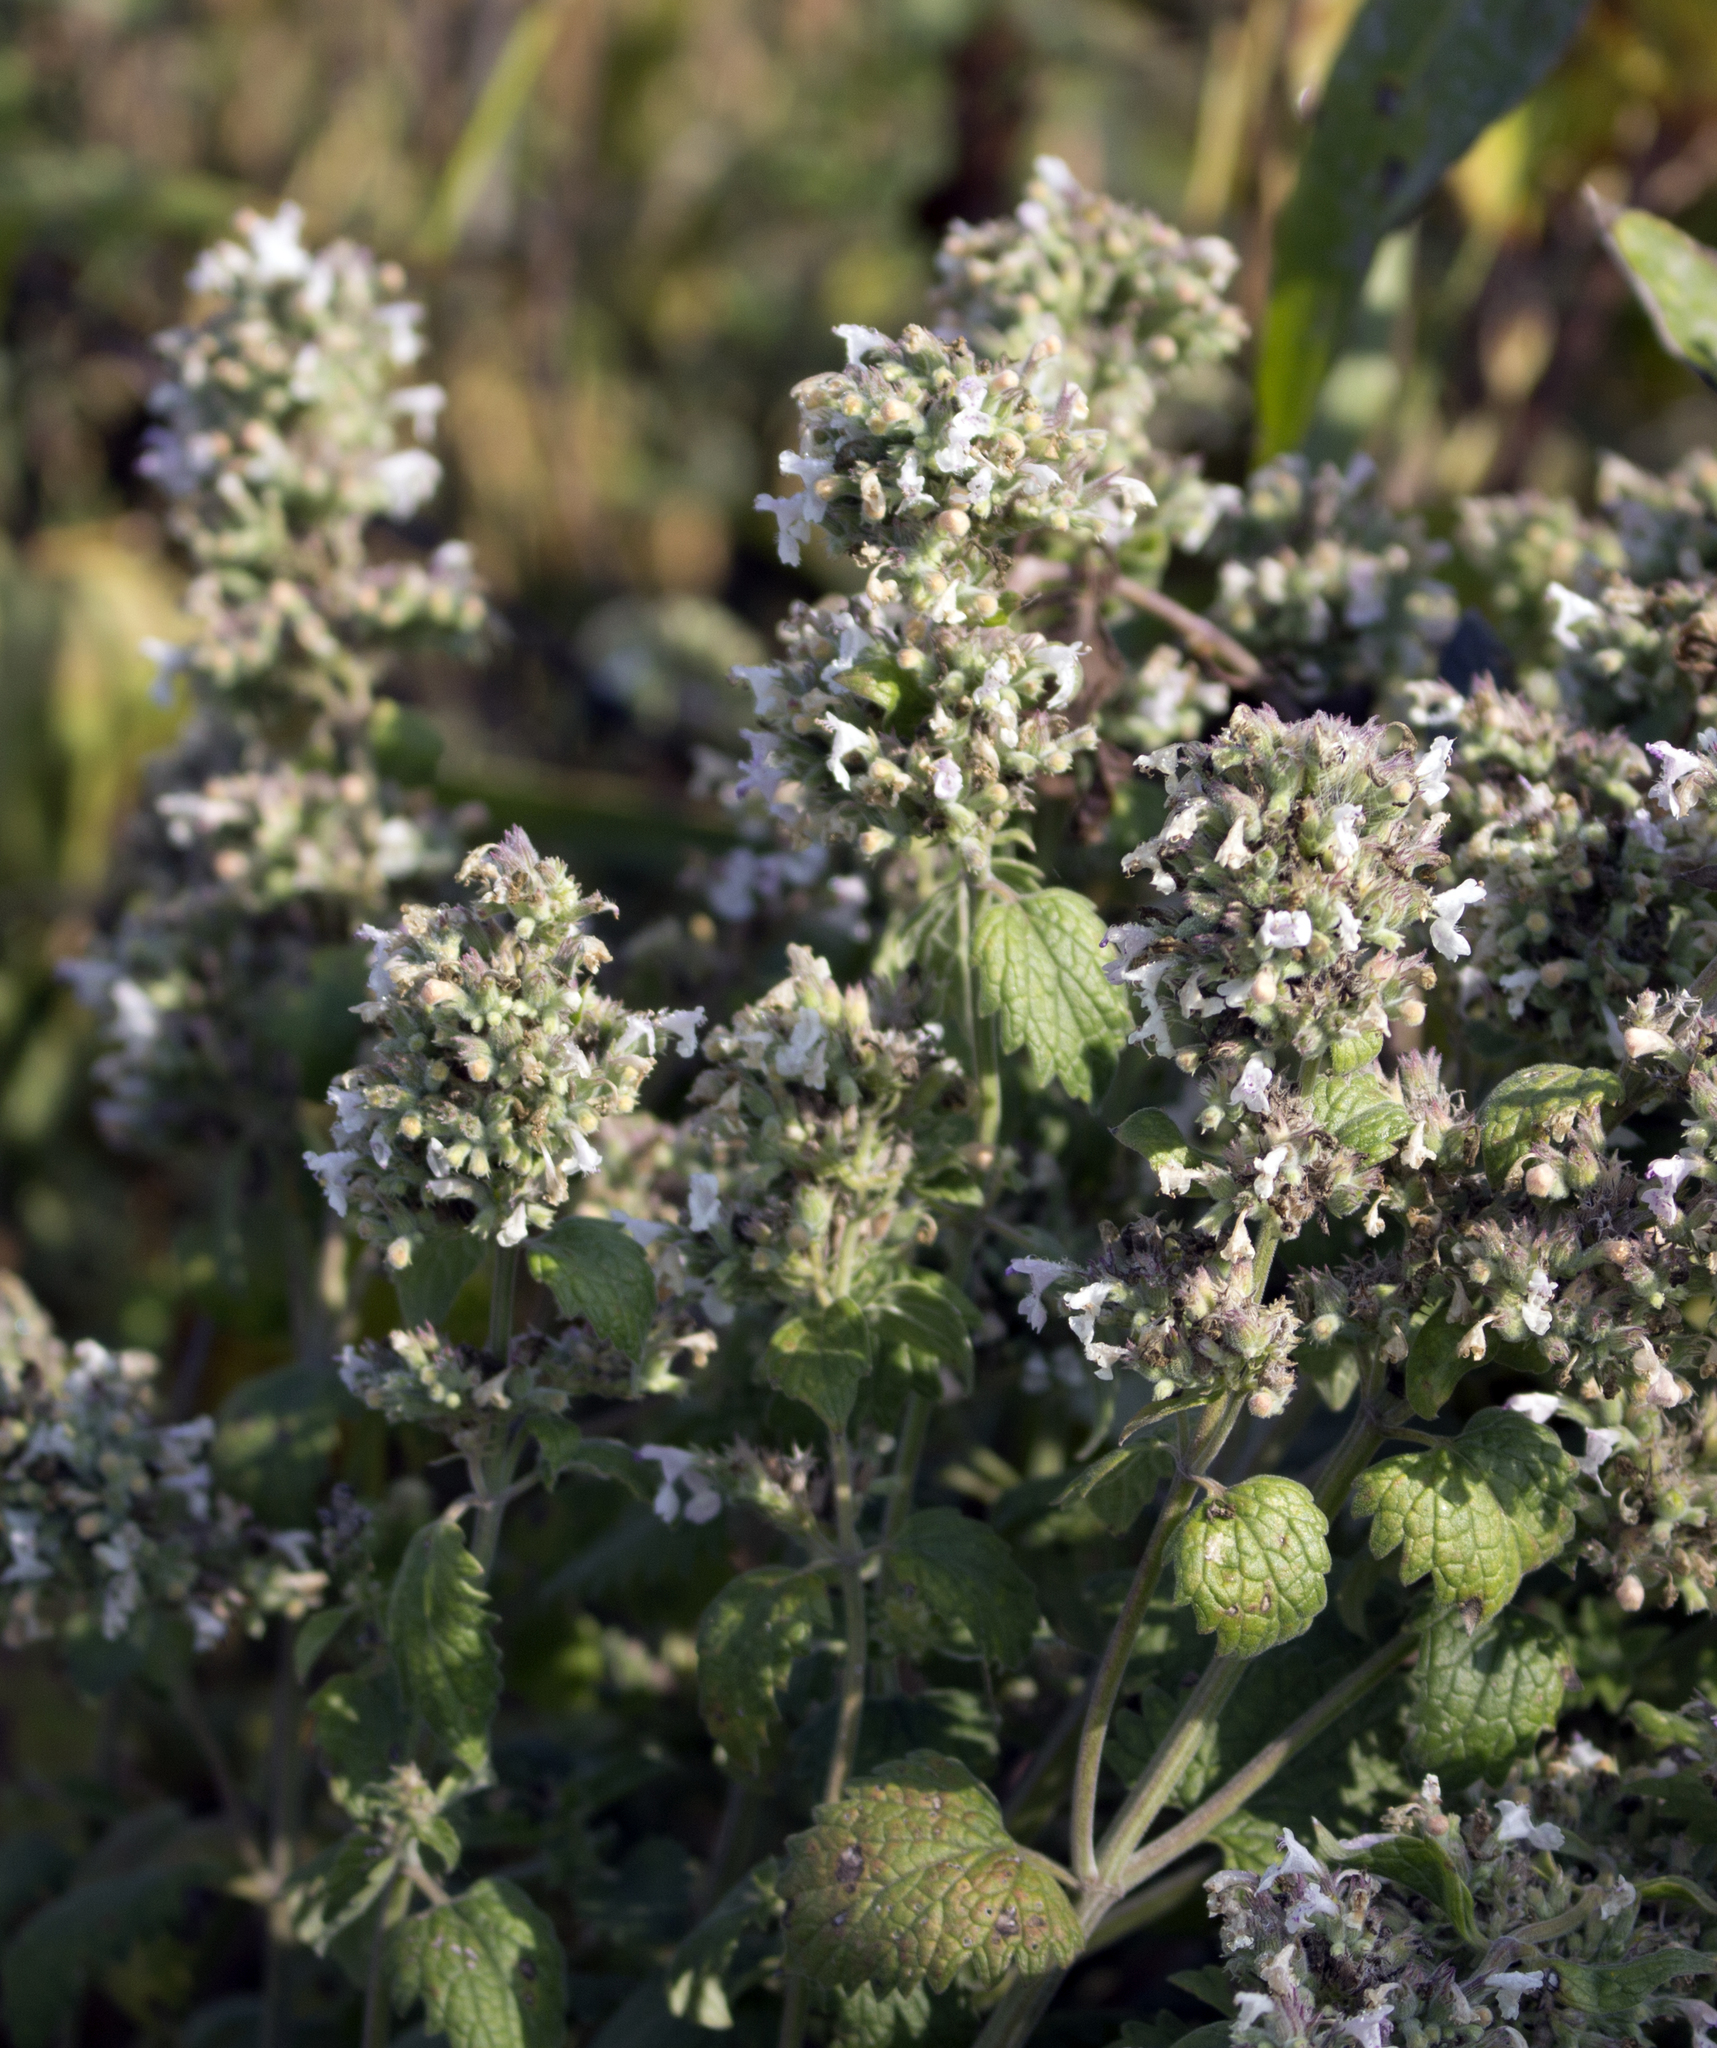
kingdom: Plantae
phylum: Tracheophyta
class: Magnoliopsida
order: Lamiales
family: Lamiaceae
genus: Nepeta
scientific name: Nepeta cataria
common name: Catnip
